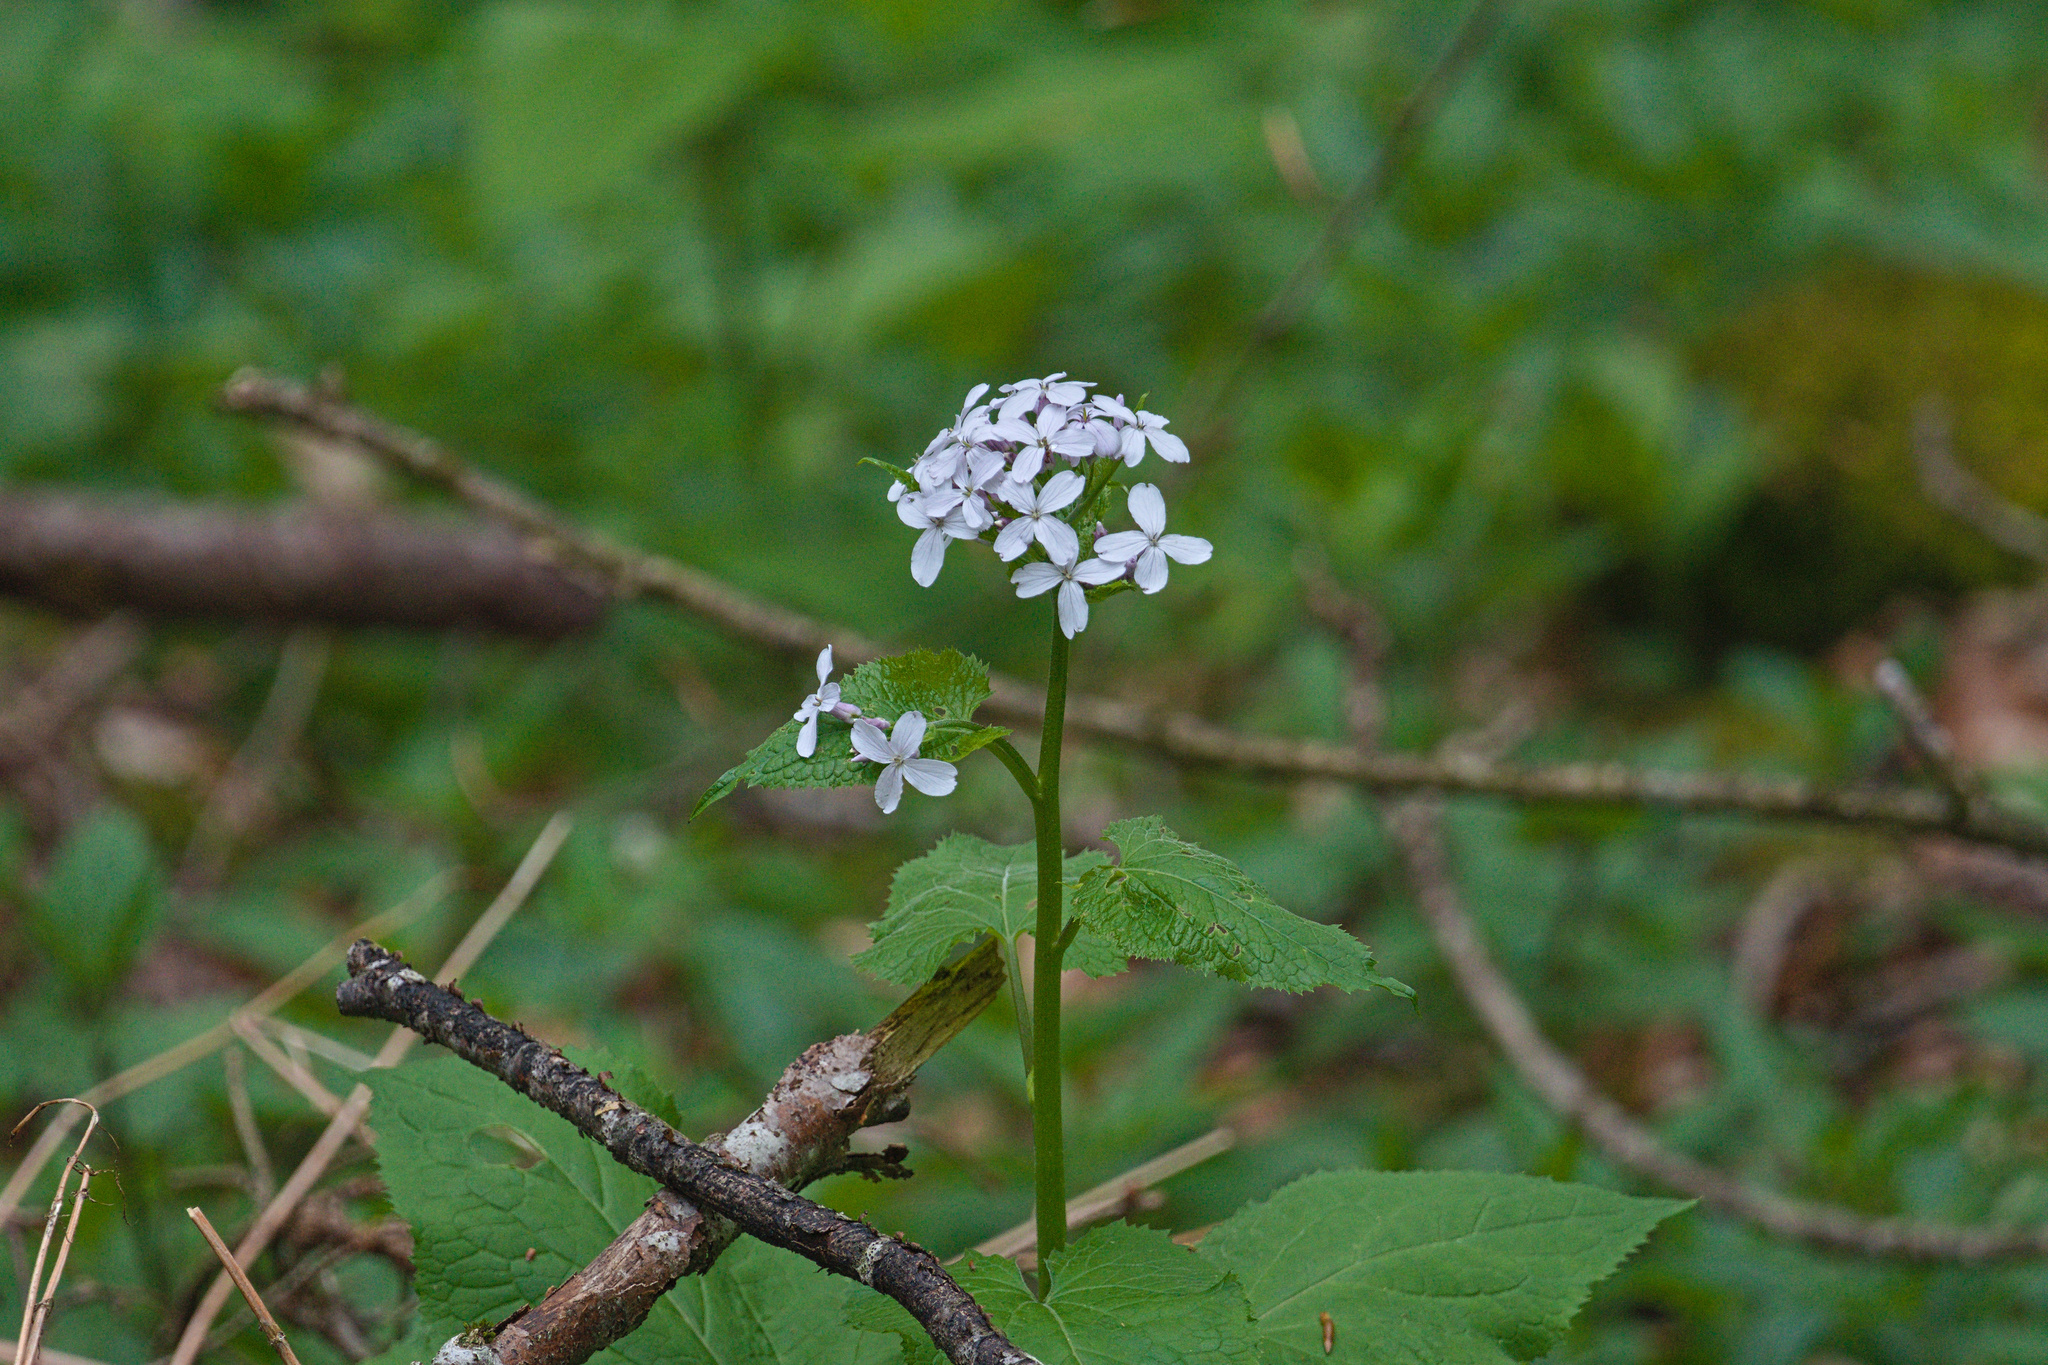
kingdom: Plantae
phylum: Tracheophyta
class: Magnoliopsida
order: Brassicales
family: Brassicaceae
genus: Lunaria
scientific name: Lunaria rediviva
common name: Perennial honesty
